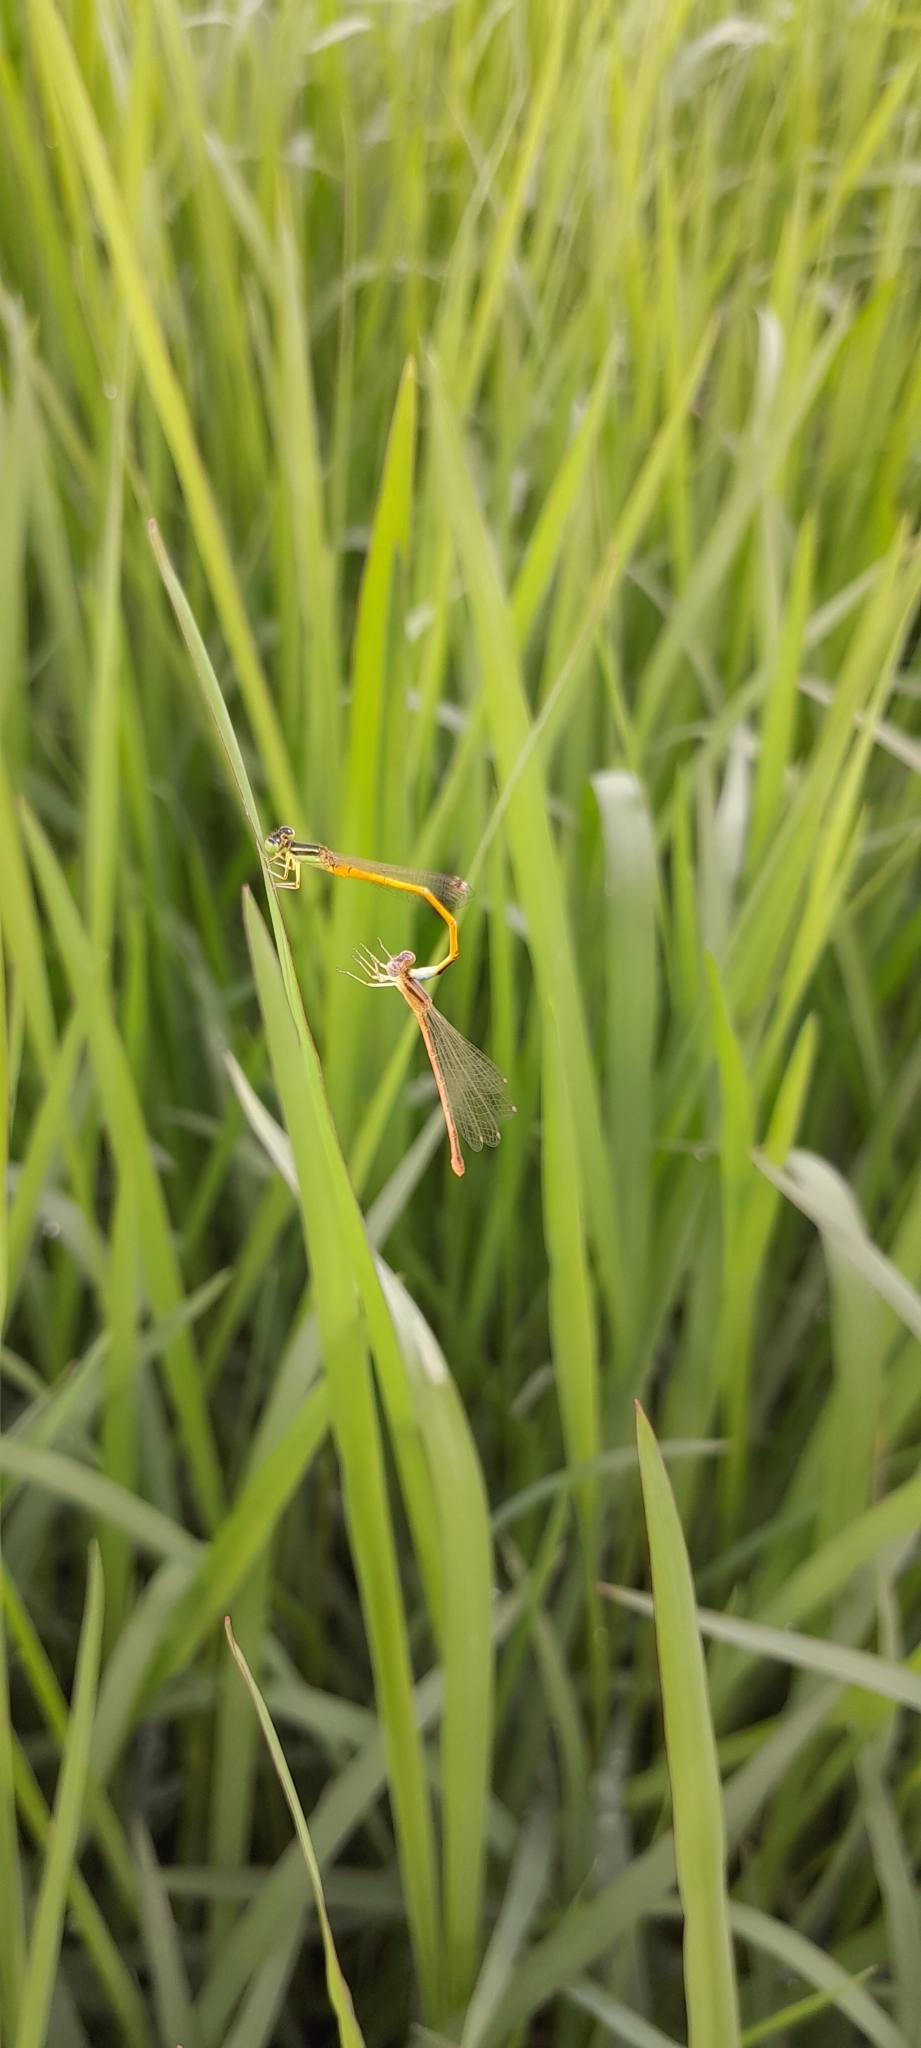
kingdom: Animalia
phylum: Arthropoda
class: Insecta
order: Odonata
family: Coenagrionidae
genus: Ischnura
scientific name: Ischnura rubilio
